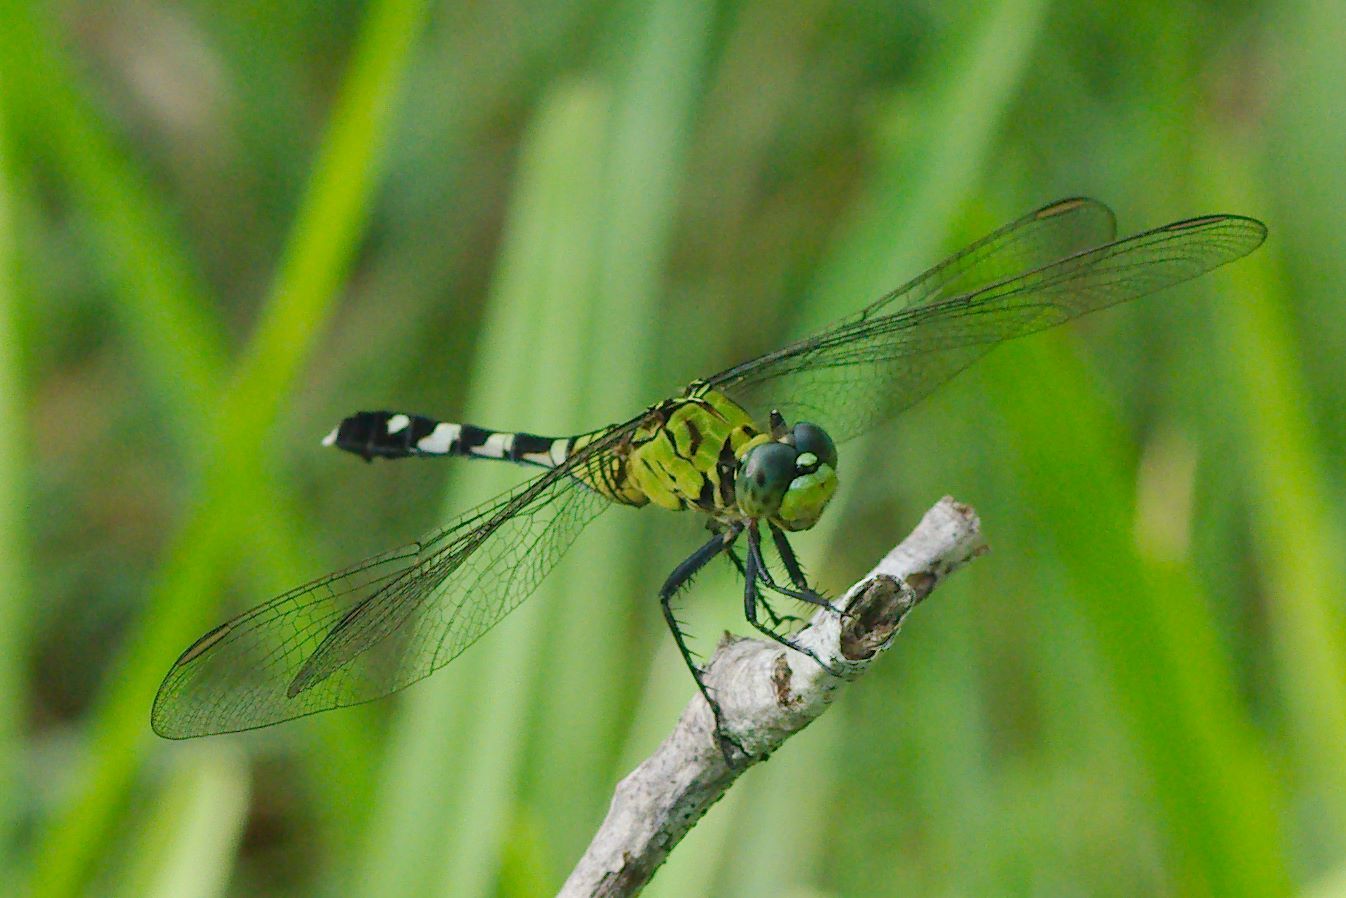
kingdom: Animalia
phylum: Arthropoda
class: Insecta
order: Odonata
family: Libellulidae
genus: Erythemis
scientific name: Erythemis simplicicollis
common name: Eastern pondhawk
